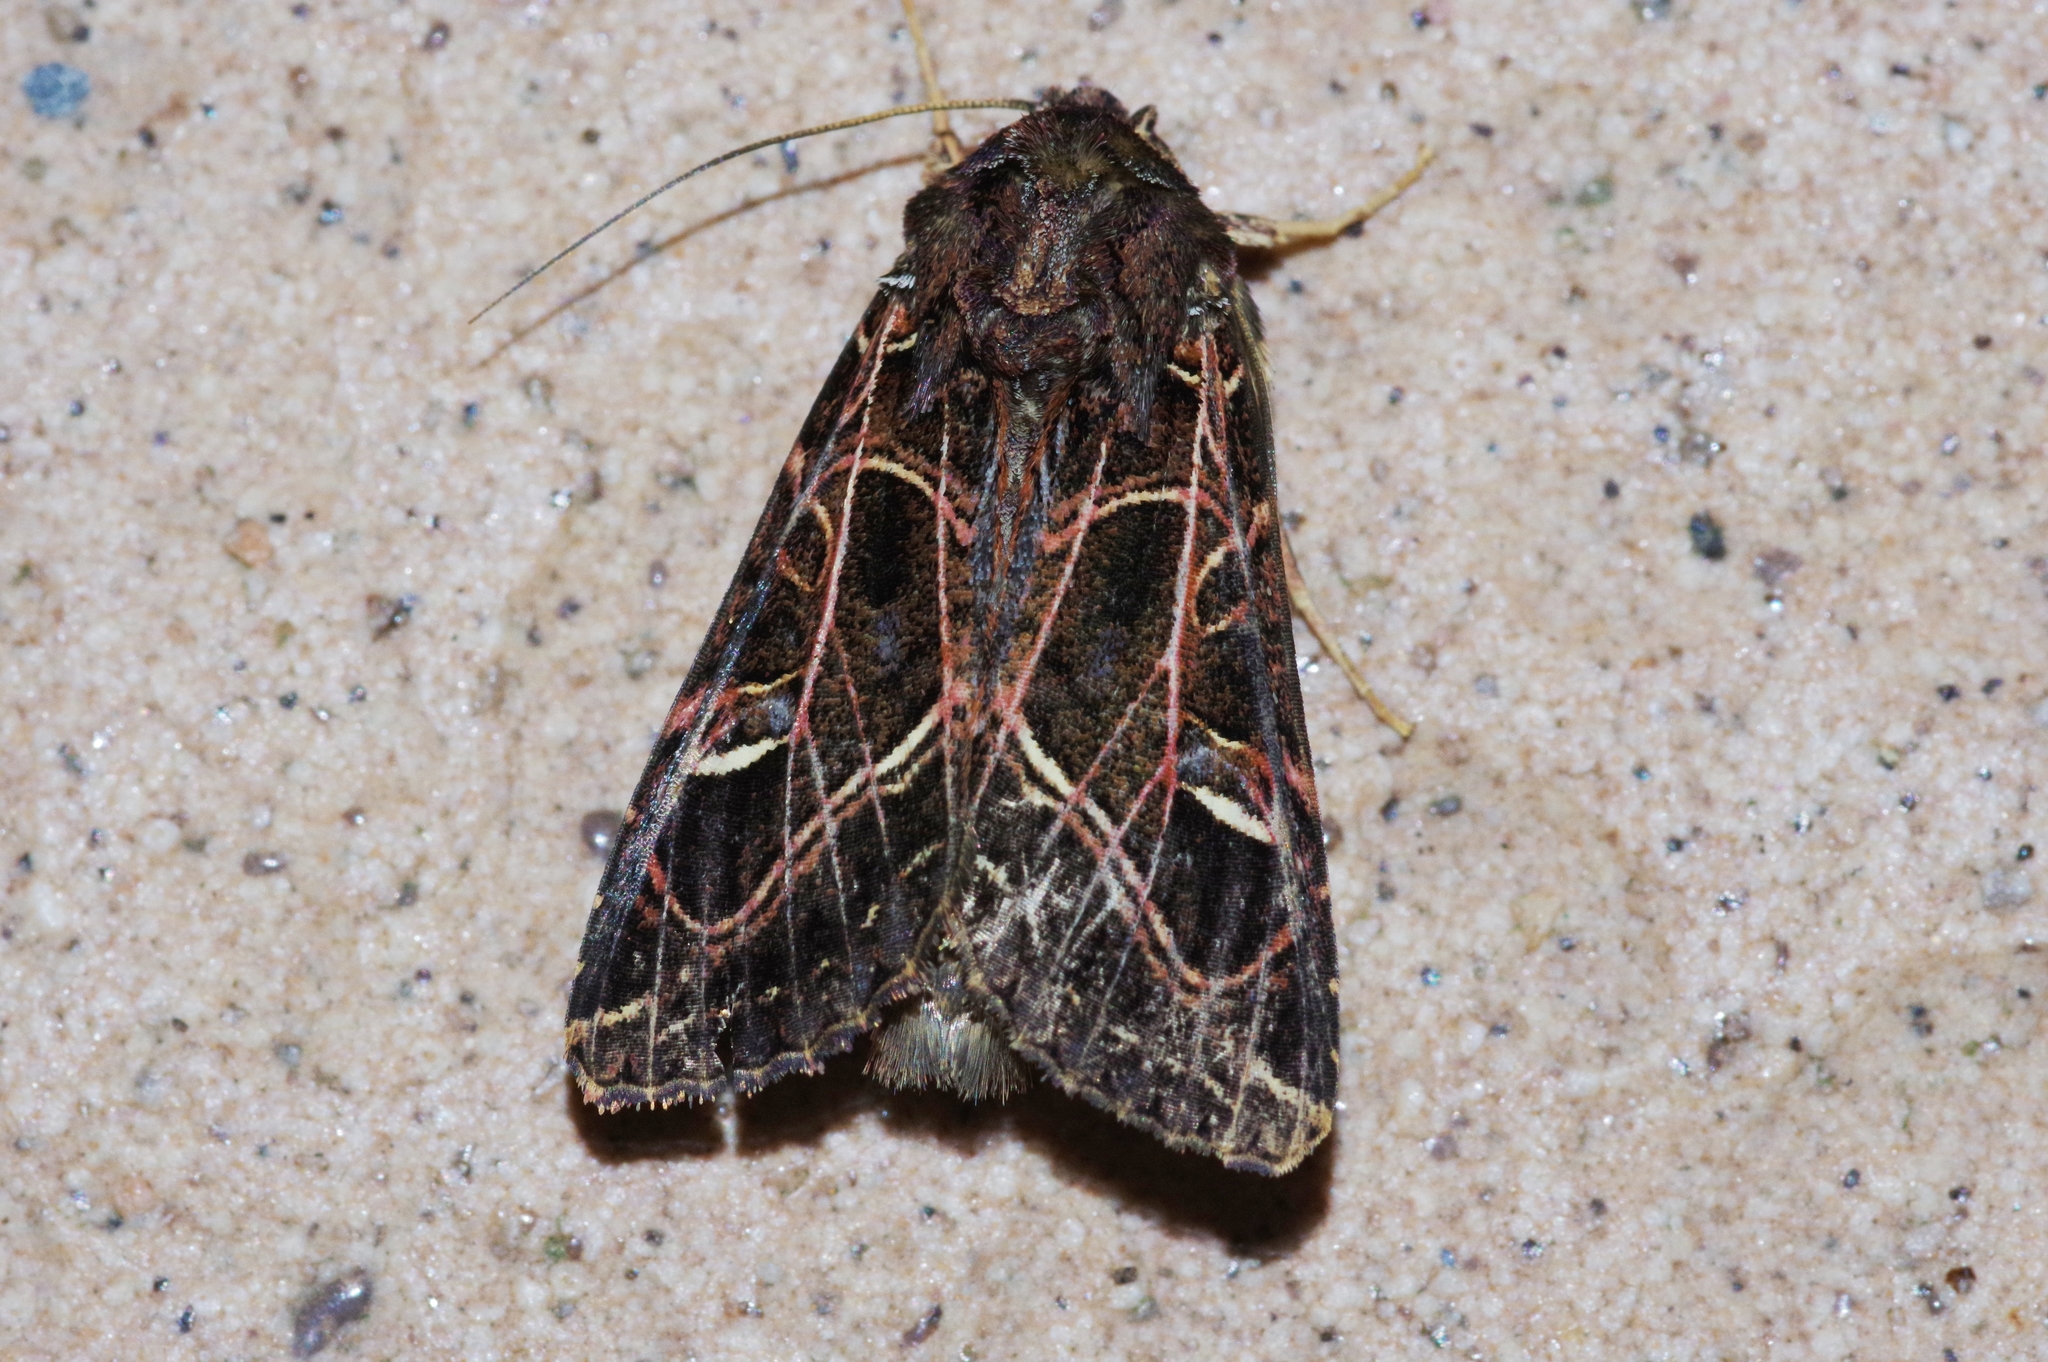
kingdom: Animalia
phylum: Arthropoda
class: Insecta
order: Lepidoptera
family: Noctuidae
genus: Dictyestra
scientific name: Dictyestra dissectus
